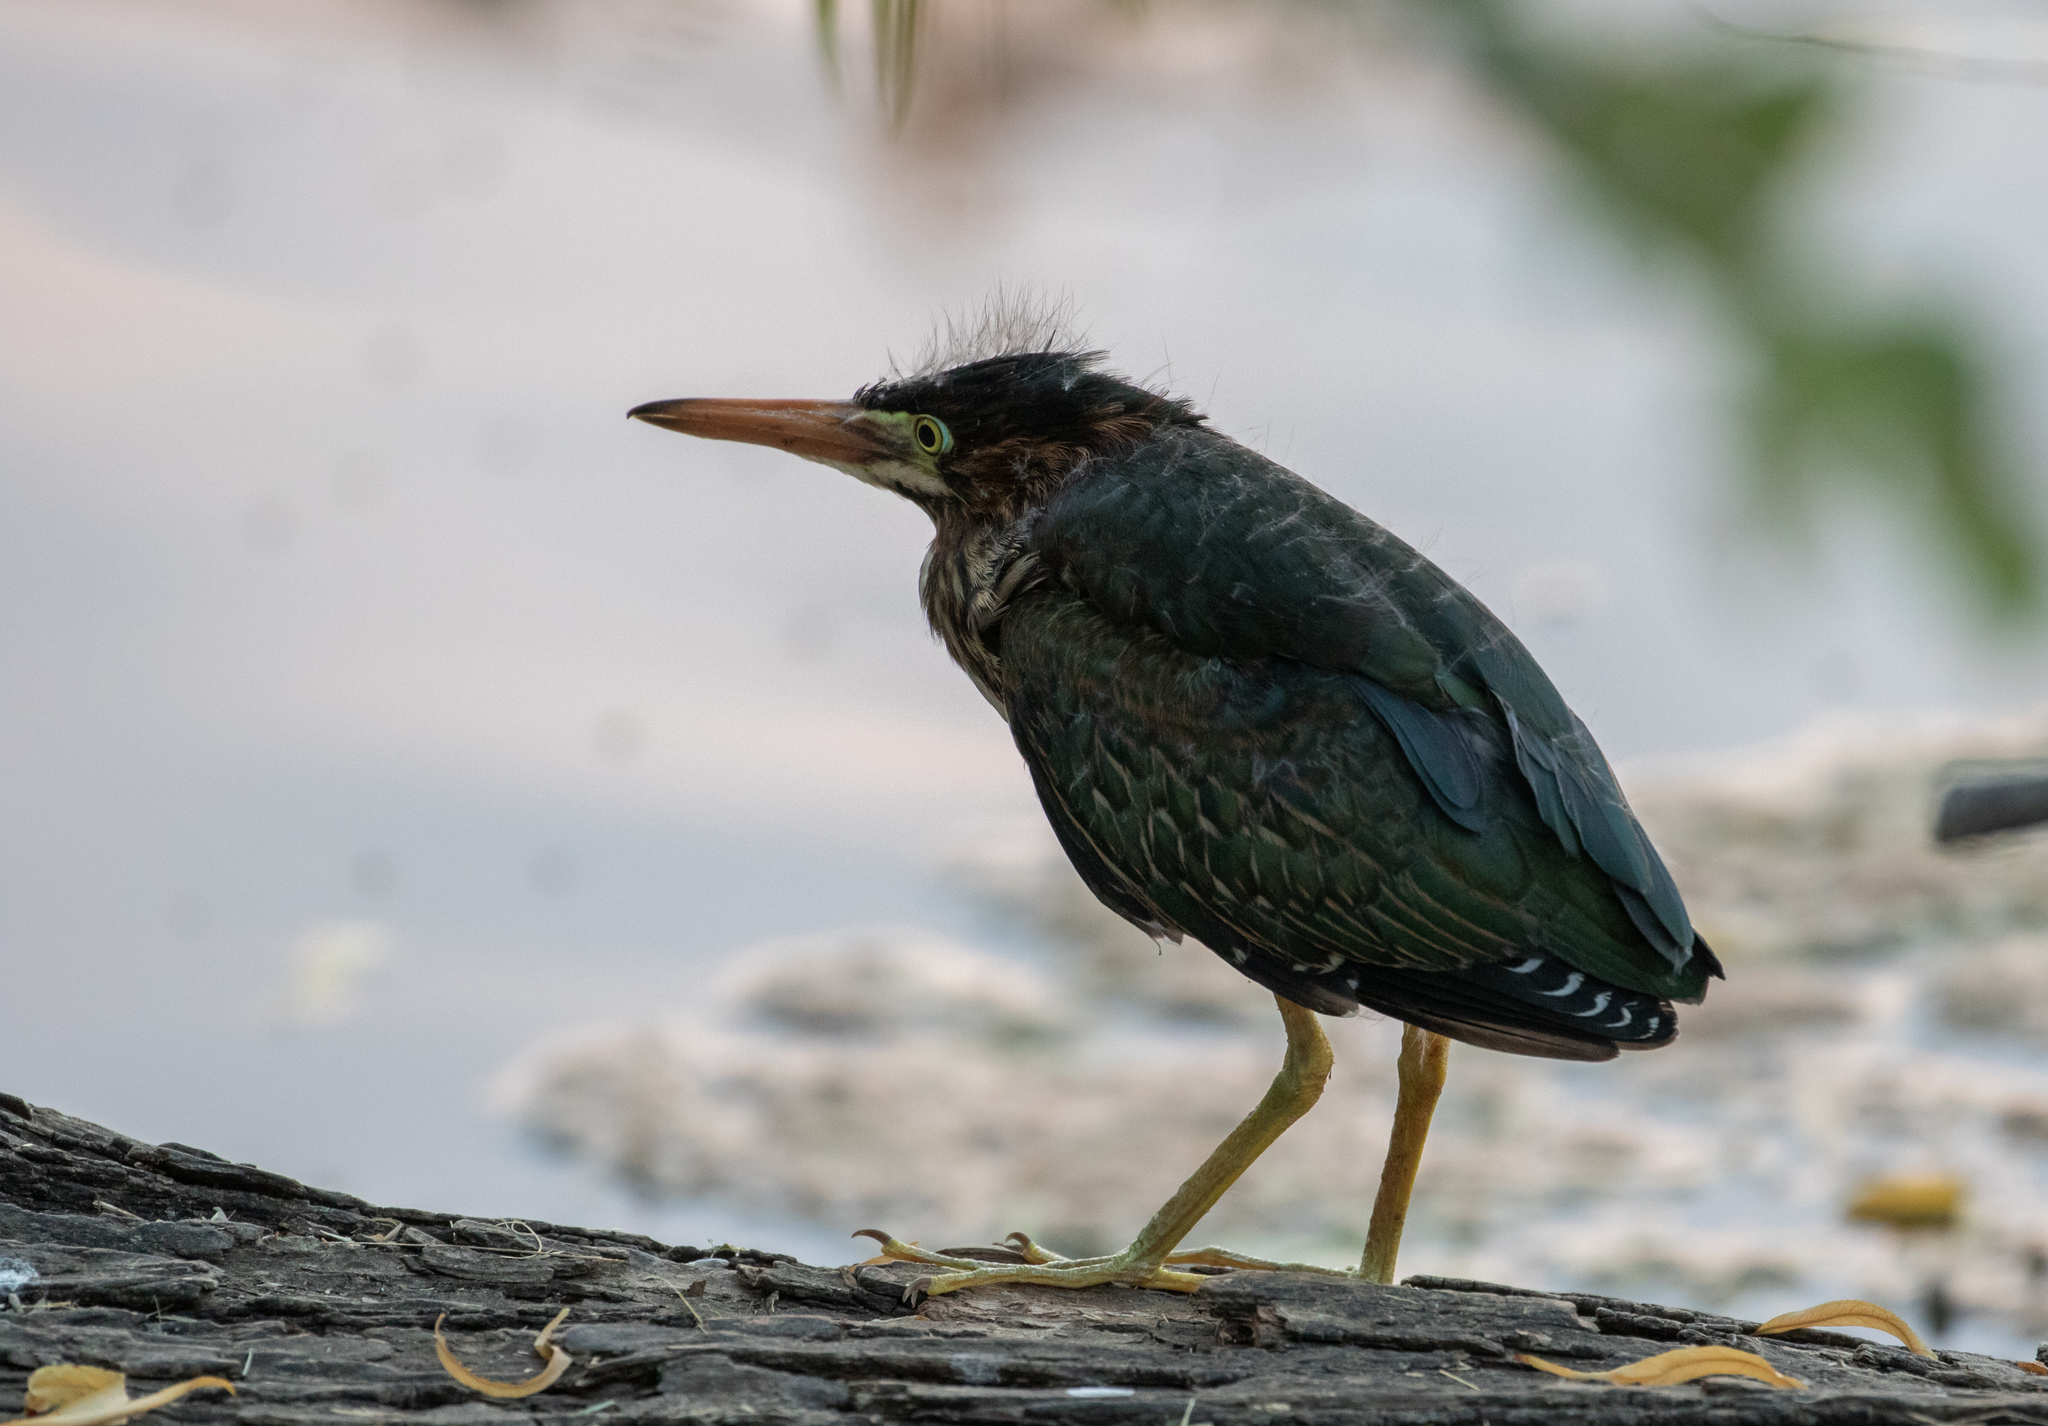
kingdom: Animalia
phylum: Chordata
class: Aves
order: Pelecaniformes
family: Ardeidae
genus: Butorides
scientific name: Butorides virescens
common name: Green heron
